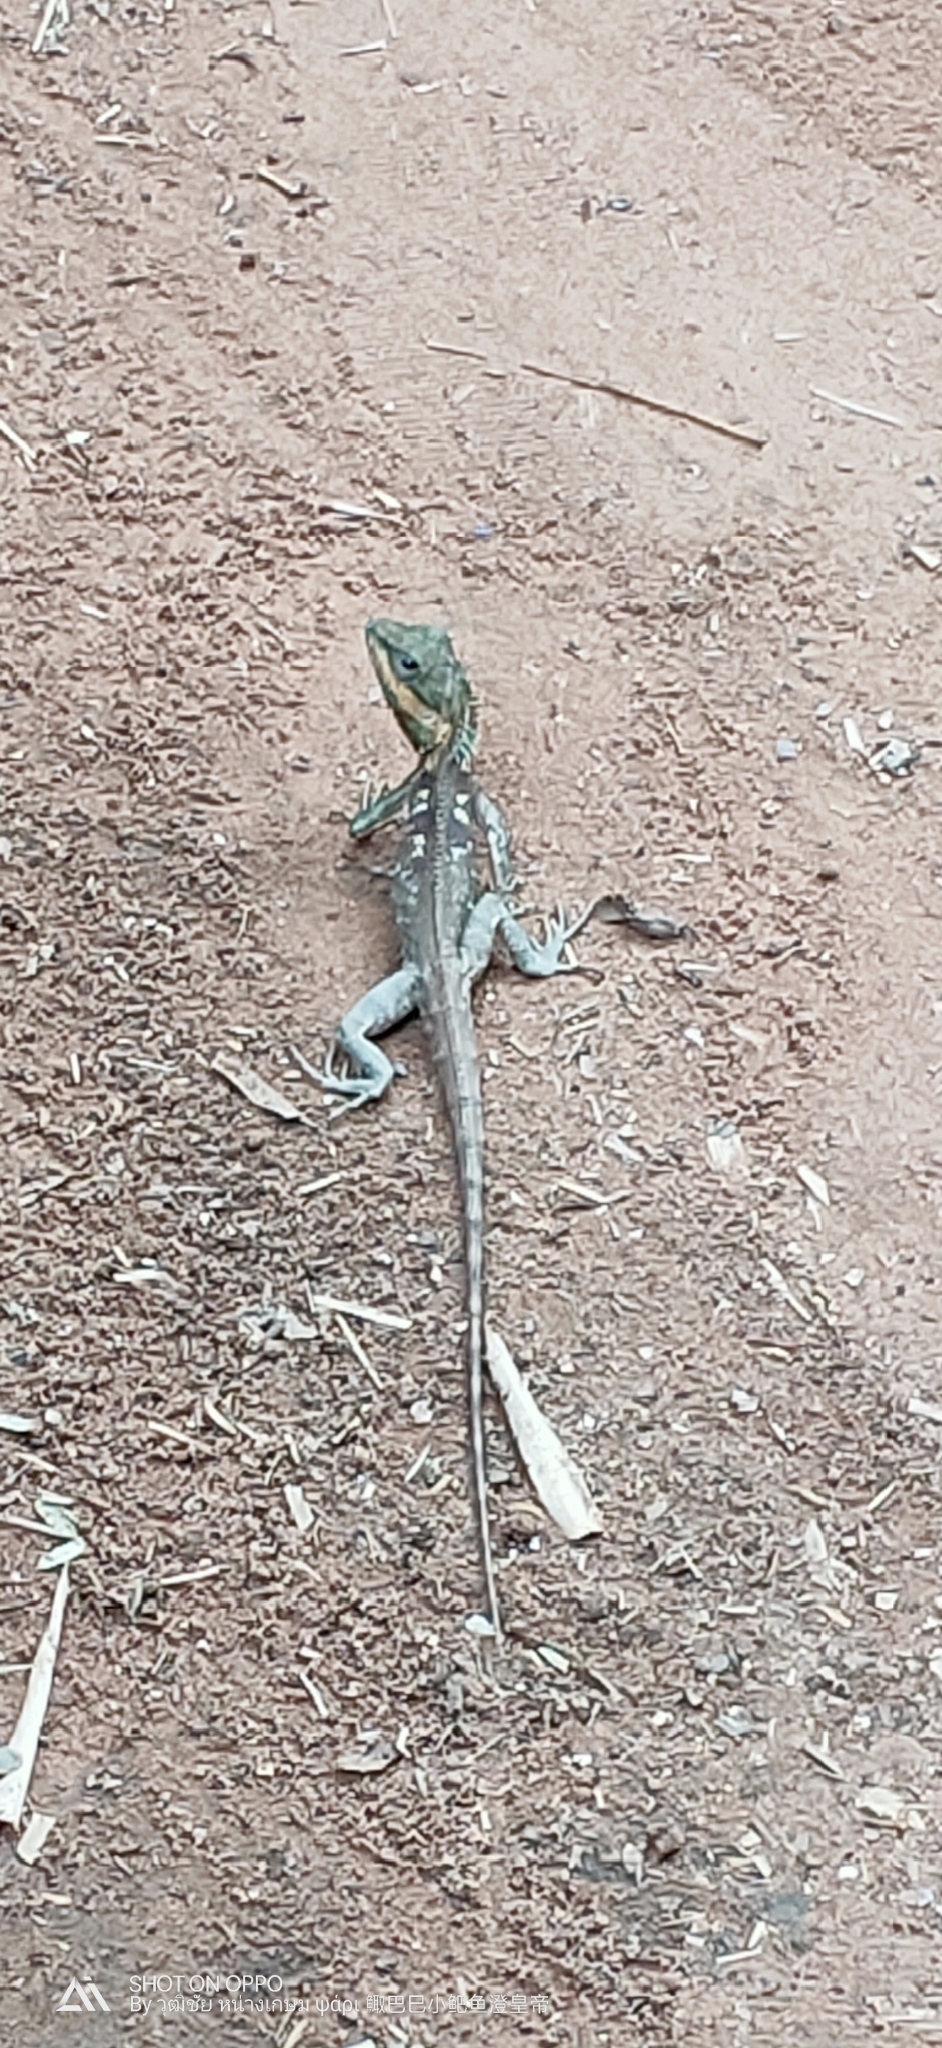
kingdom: Animalia
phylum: Chordata
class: Squamata
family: Agamidae
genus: Calotes
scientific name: Calotes goetzi
